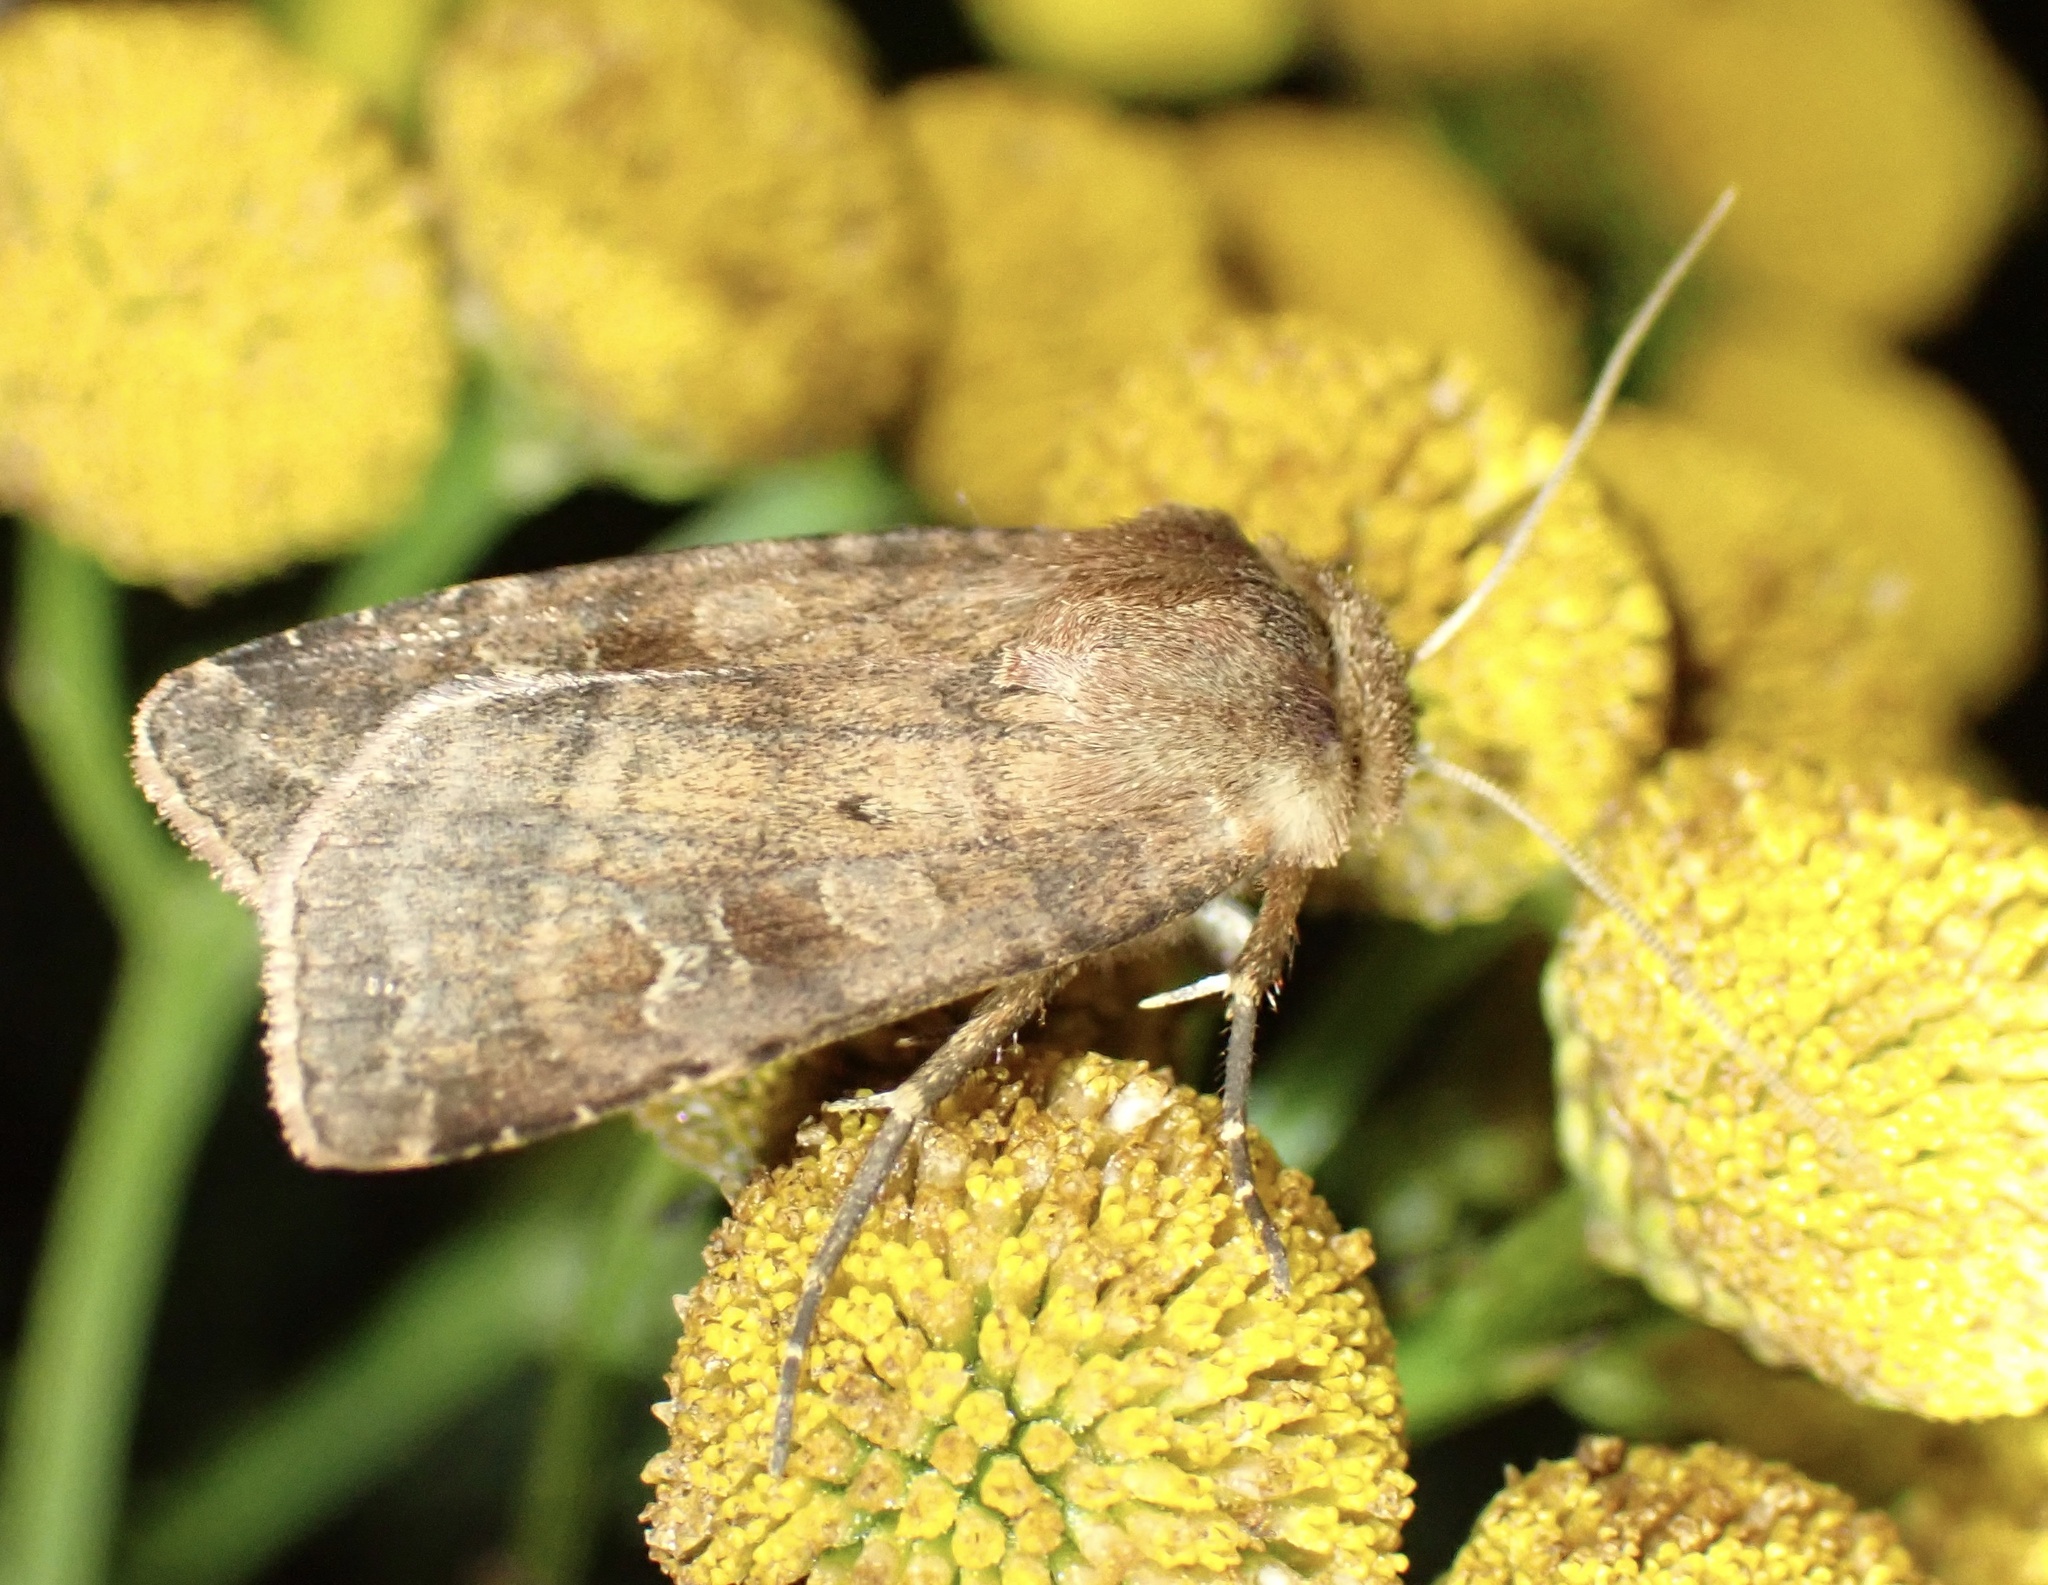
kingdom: Animalia
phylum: Arthropoda
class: Insecta
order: Lepidoptera
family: Noctuidae
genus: Diarsia
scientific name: Diarsia rubi
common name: Small square-spot
